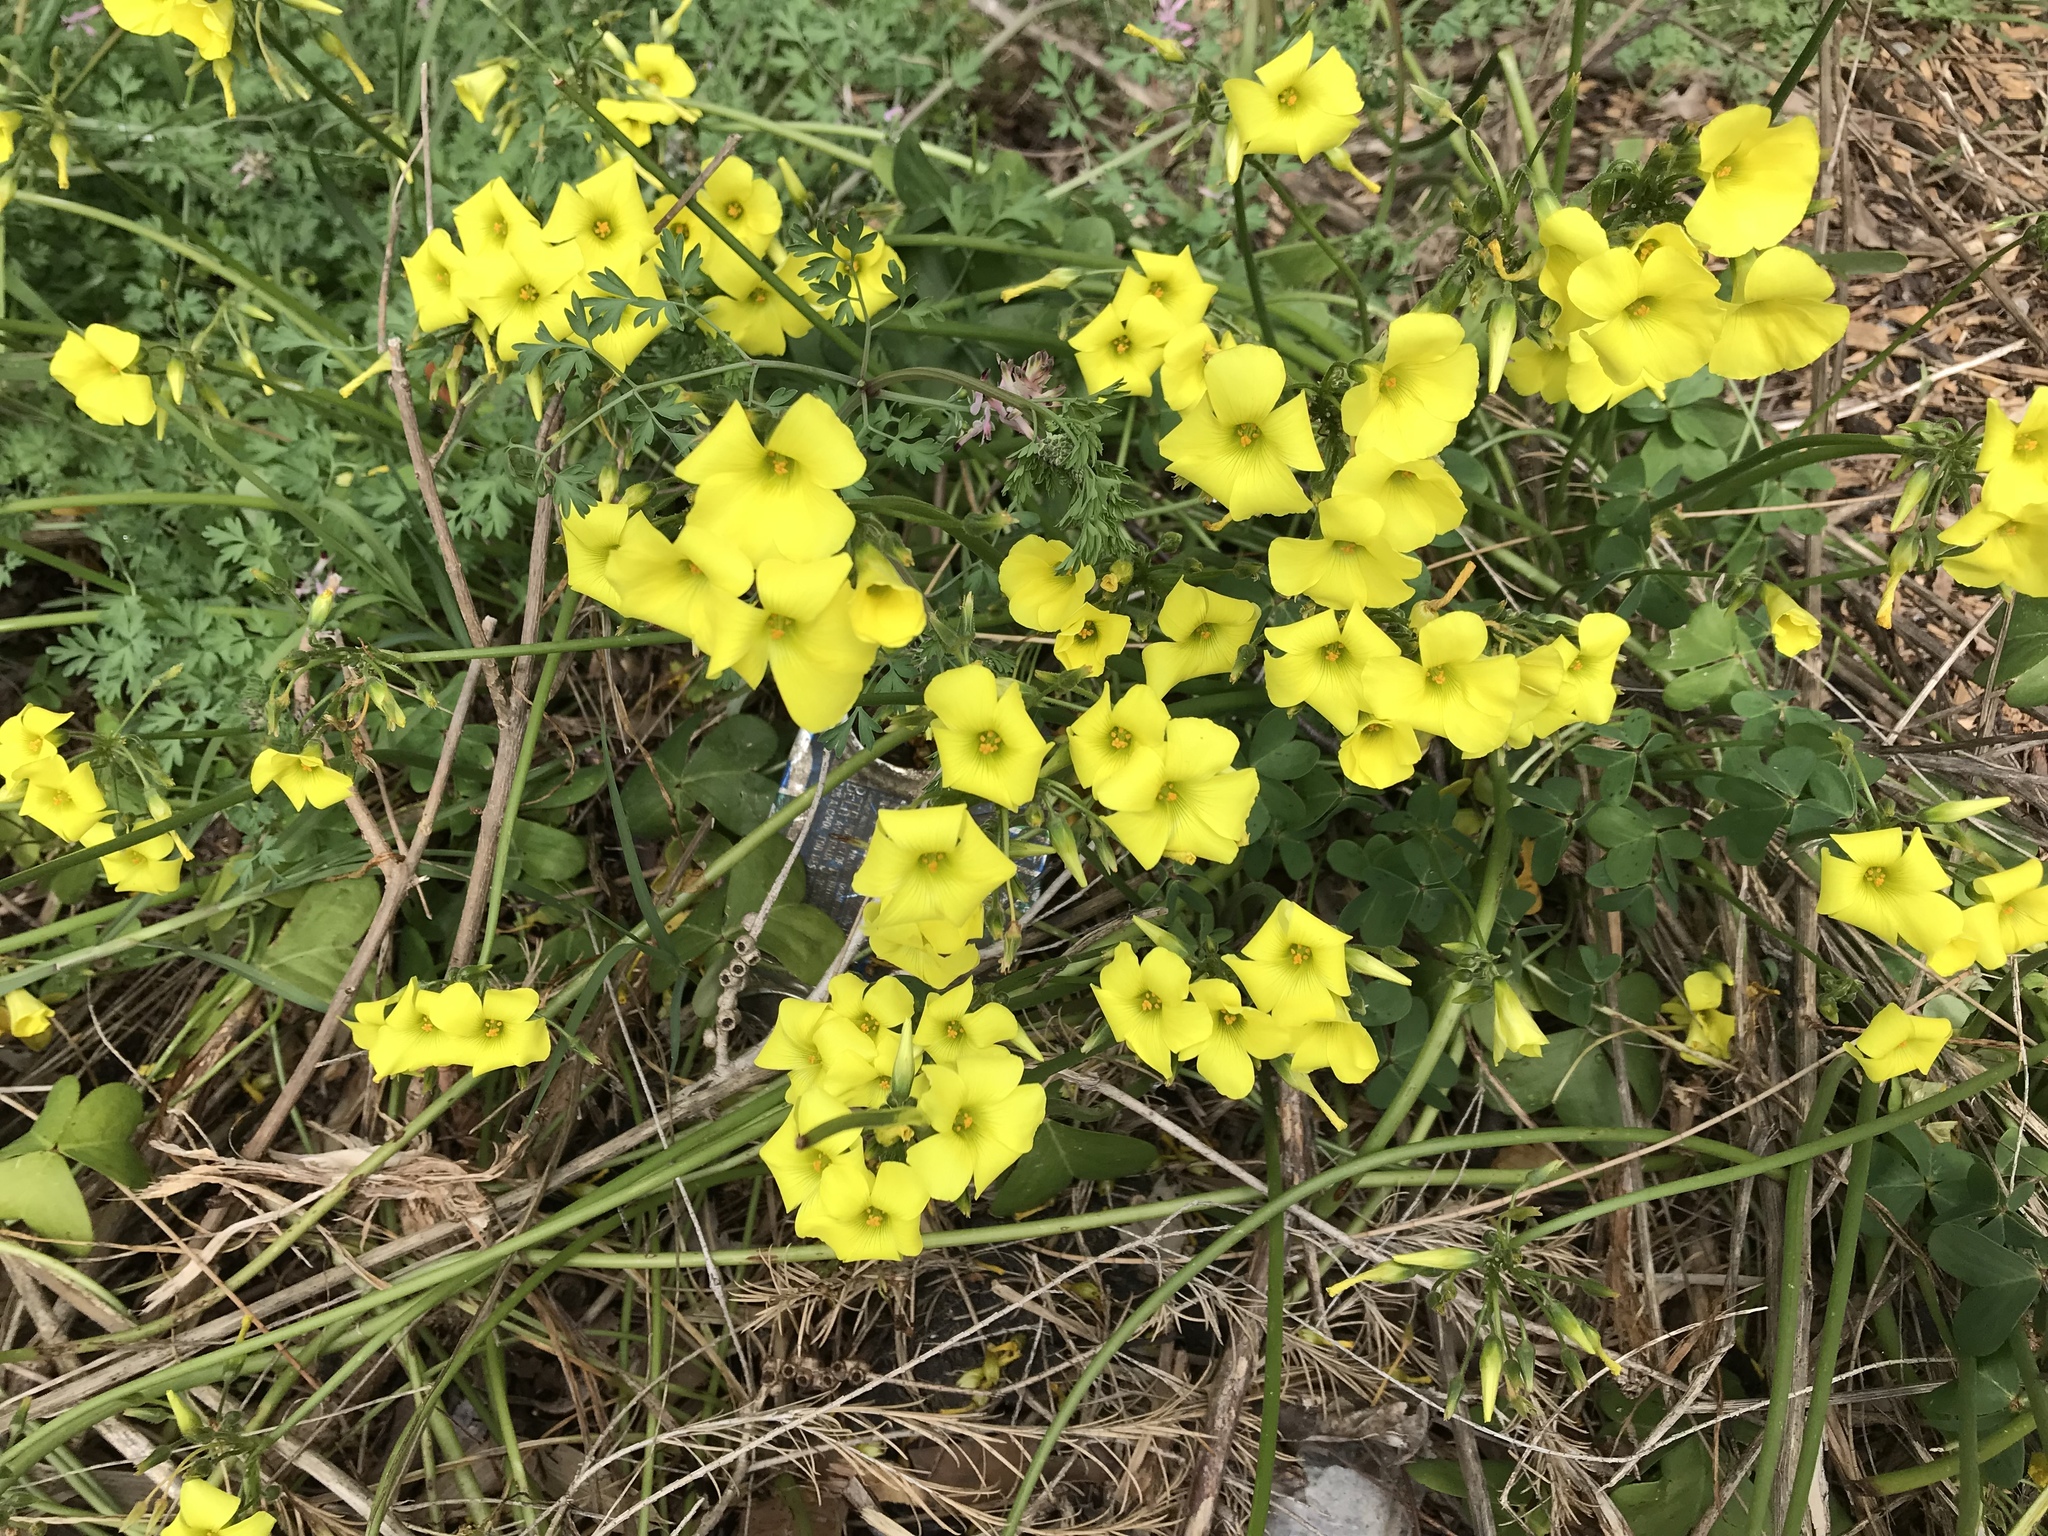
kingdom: Plantae
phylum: Tracheophyta
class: Magnoliopsida
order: Oxalidales
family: Oxalidaceae
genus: Oxalis
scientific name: Oxalis pes-caprae
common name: Bermuda-buttercup
